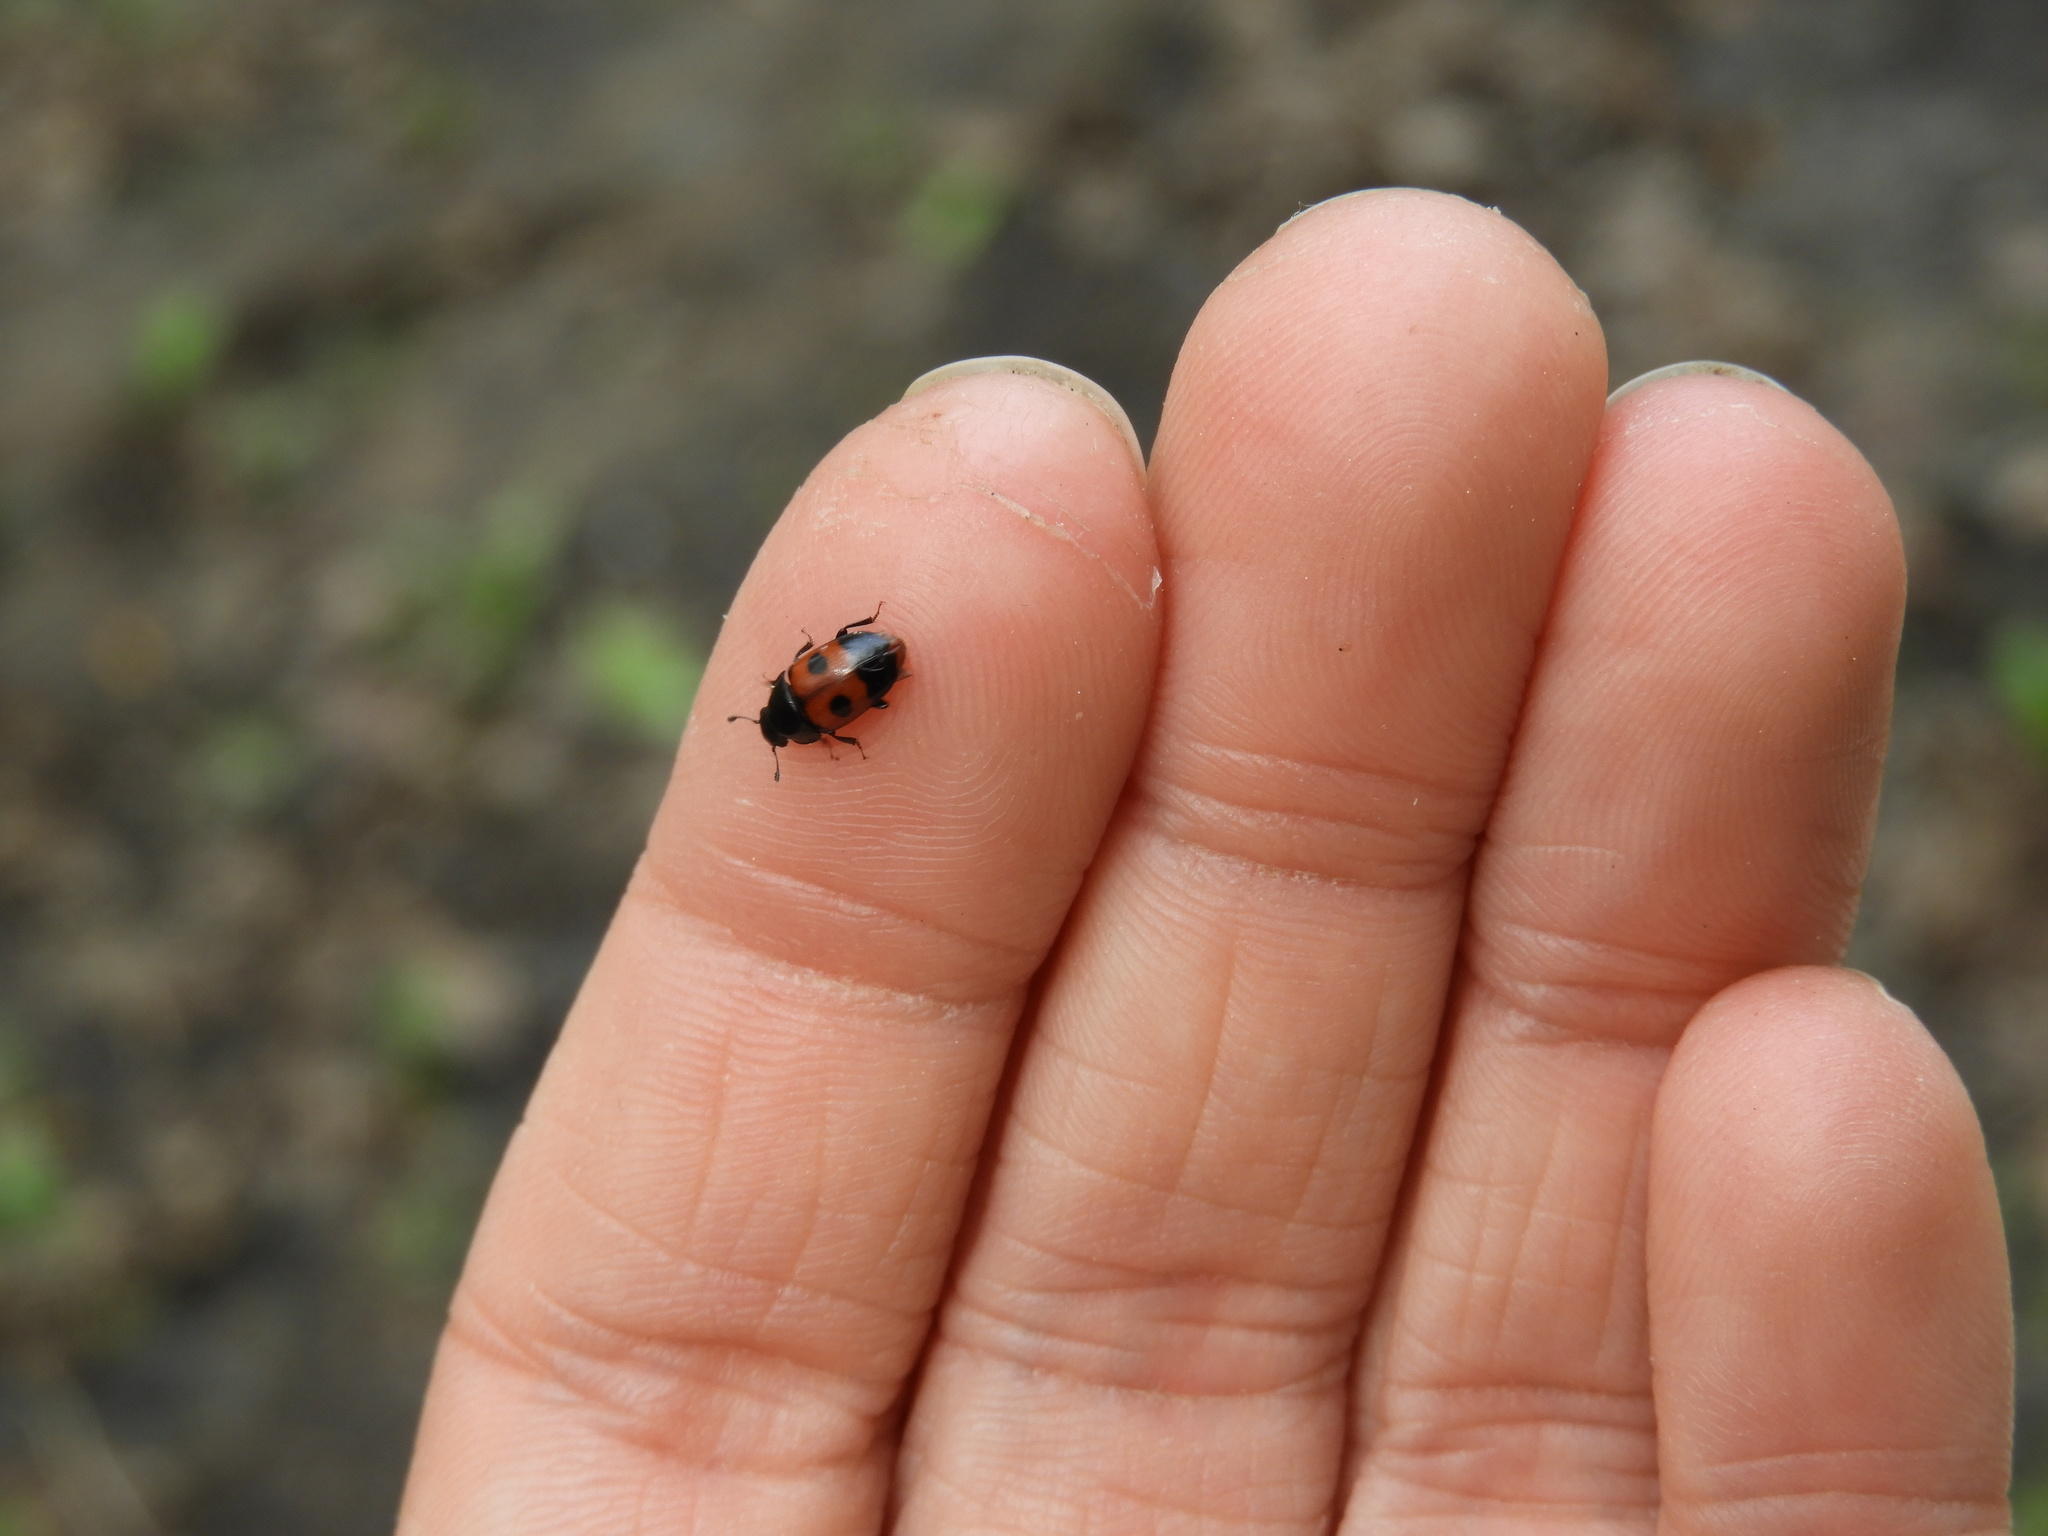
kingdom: Animalia
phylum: Arthropoda
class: Insecta
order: Coleoptera
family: Nitidulidae
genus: Glischrochilus
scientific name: Glischrochilus sanguinolentus
